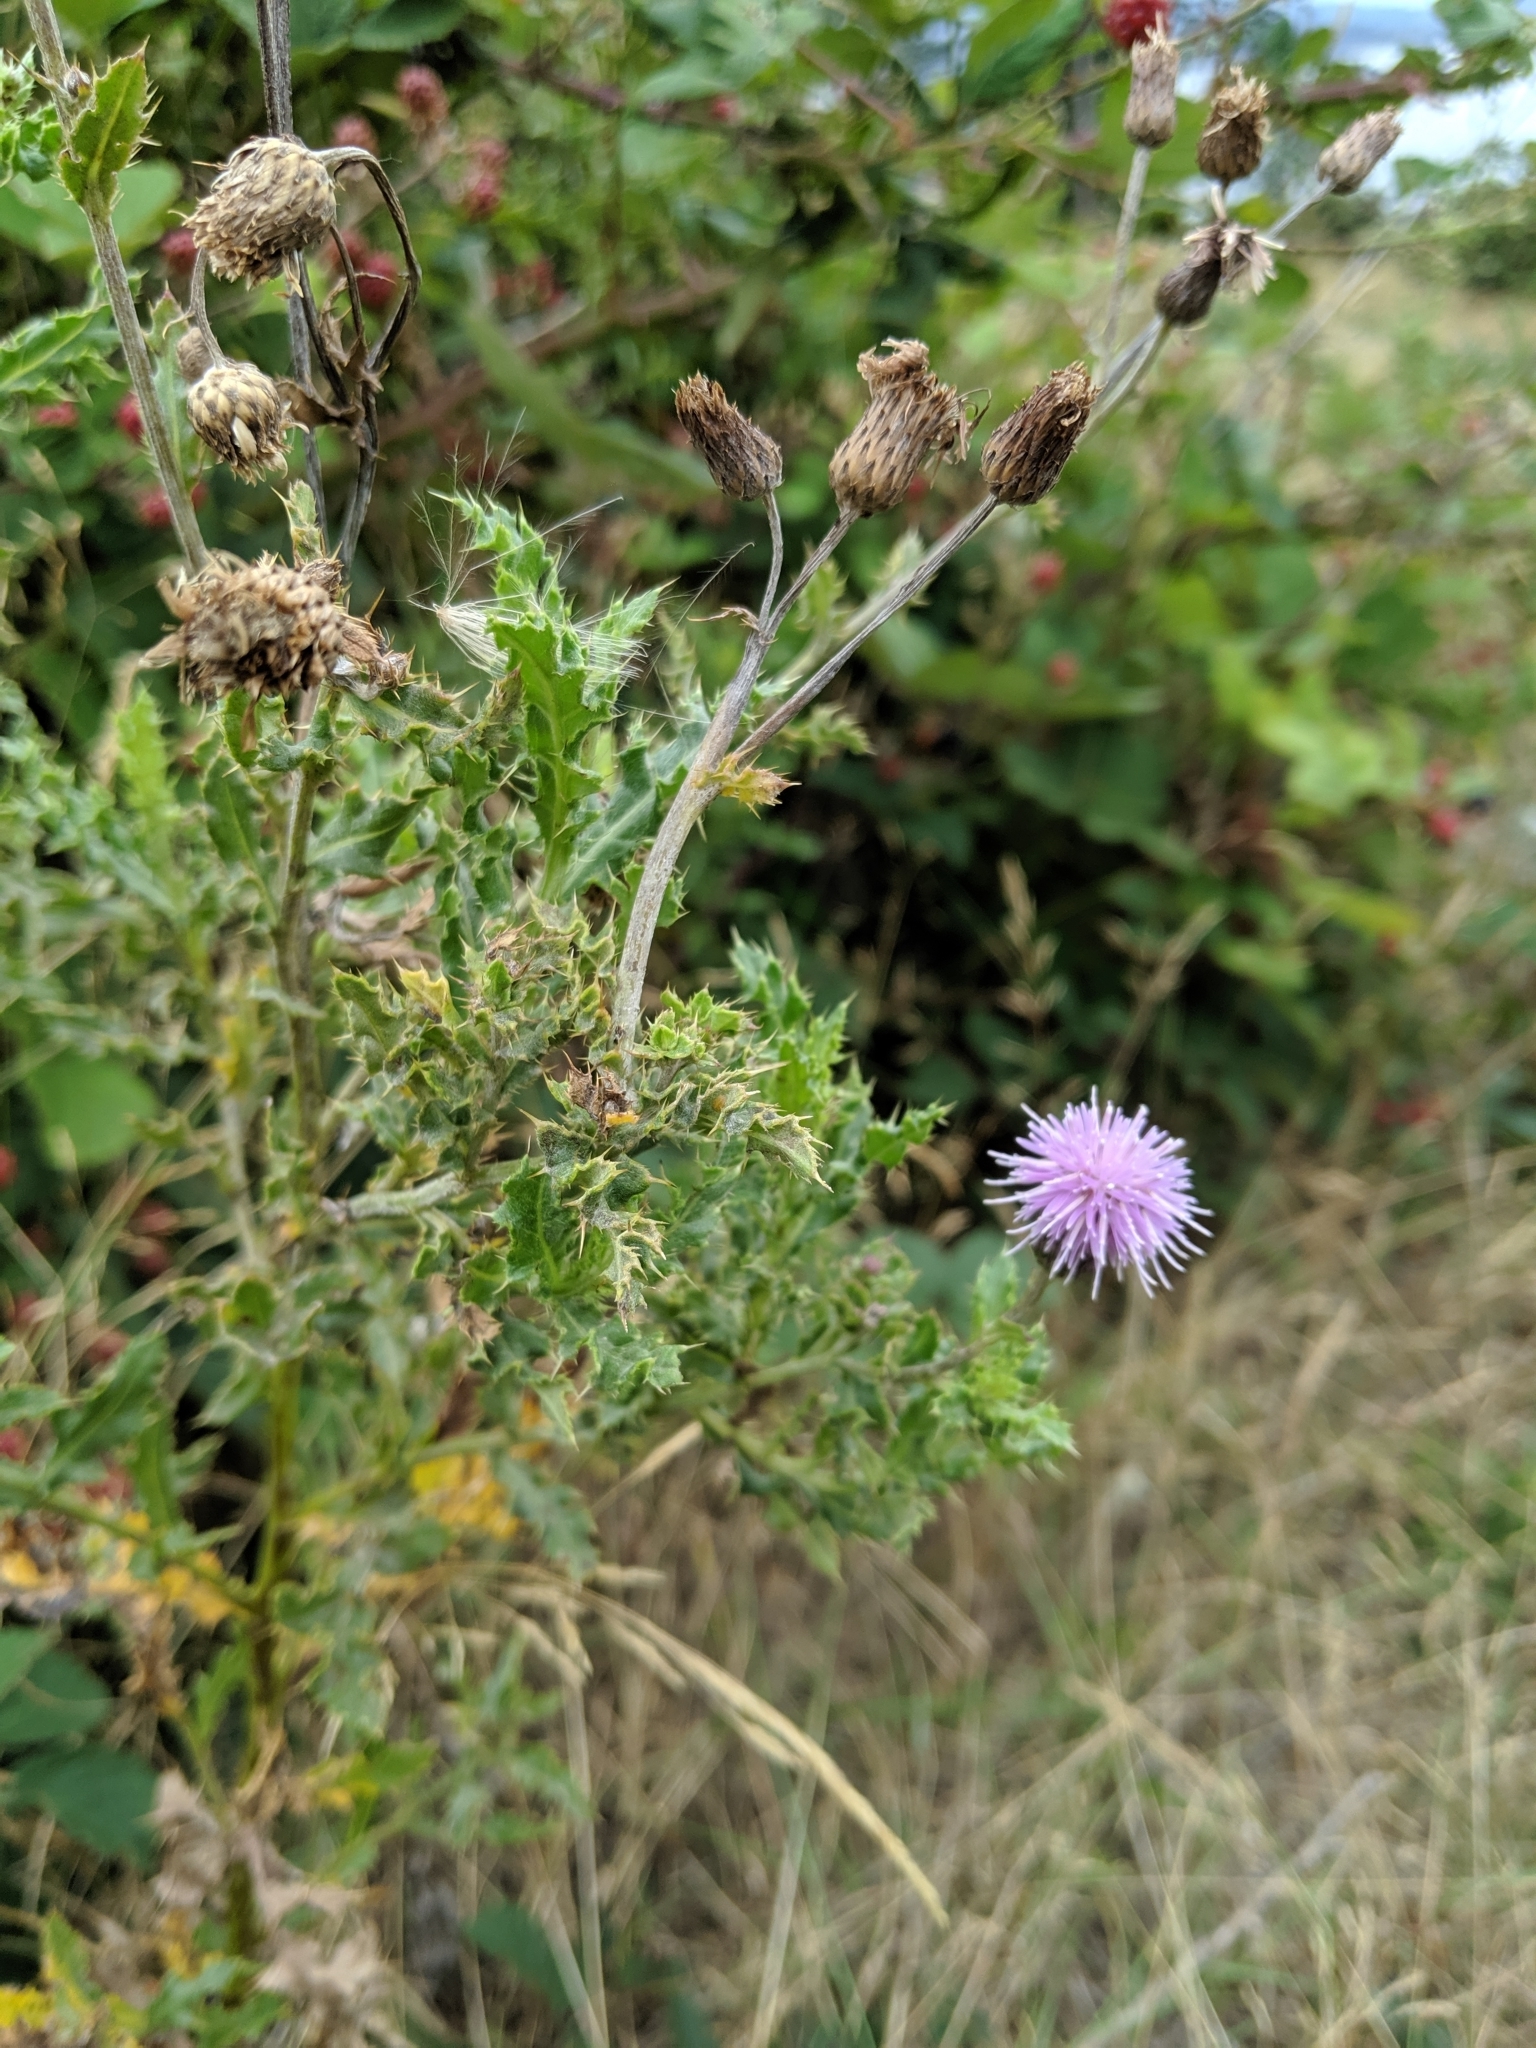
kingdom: Plantae
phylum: Tracheophyta
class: Magnoliopsida
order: Asterales
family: Asteraceae
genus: Cirsium
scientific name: Cirsium arvense
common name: Creeping thistle
